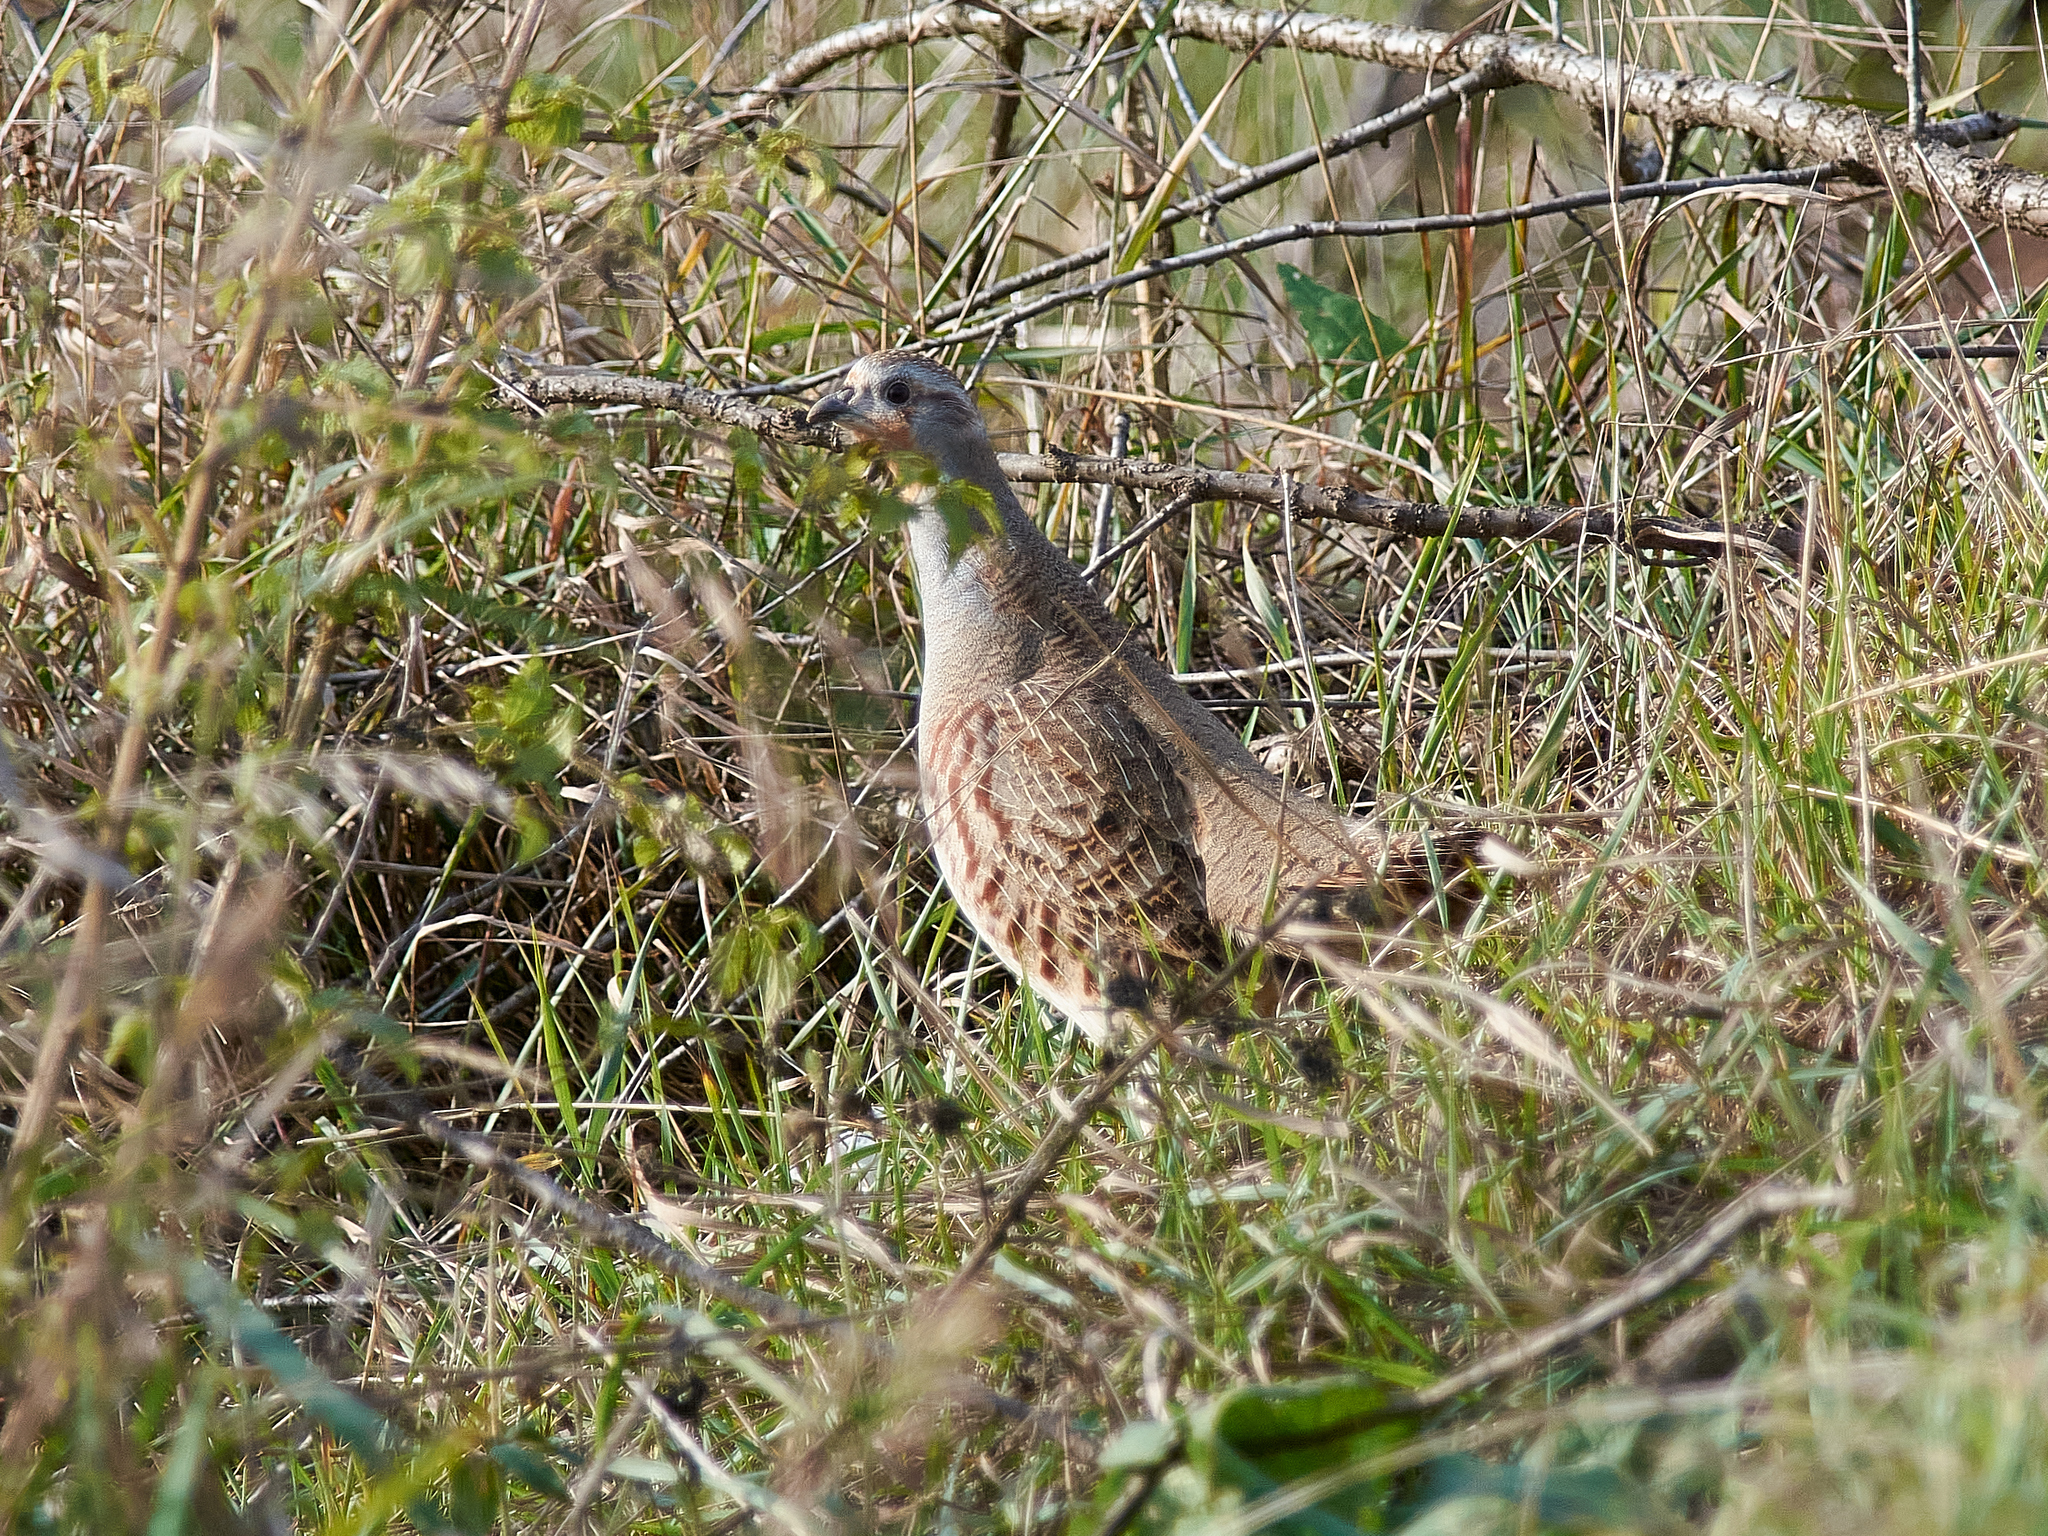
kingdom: Animalia
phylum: Chordata
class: Aves
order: Galliformes
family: Phasianidae
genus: Perdix
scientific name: Perdix perdix
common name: Grey partridge
